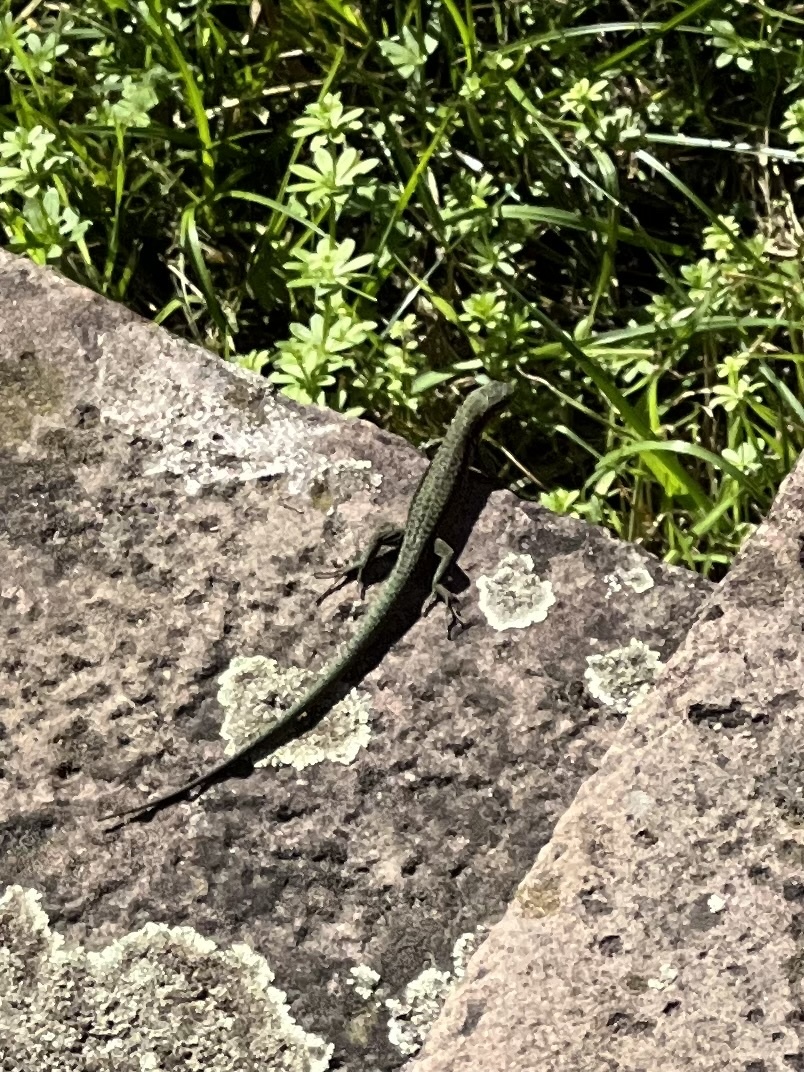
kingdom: Animalia
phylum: Chordata
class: Squamata
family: Lacertidae
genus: Podarcis
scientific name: Podarcis muralis
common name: Common wall lizard
